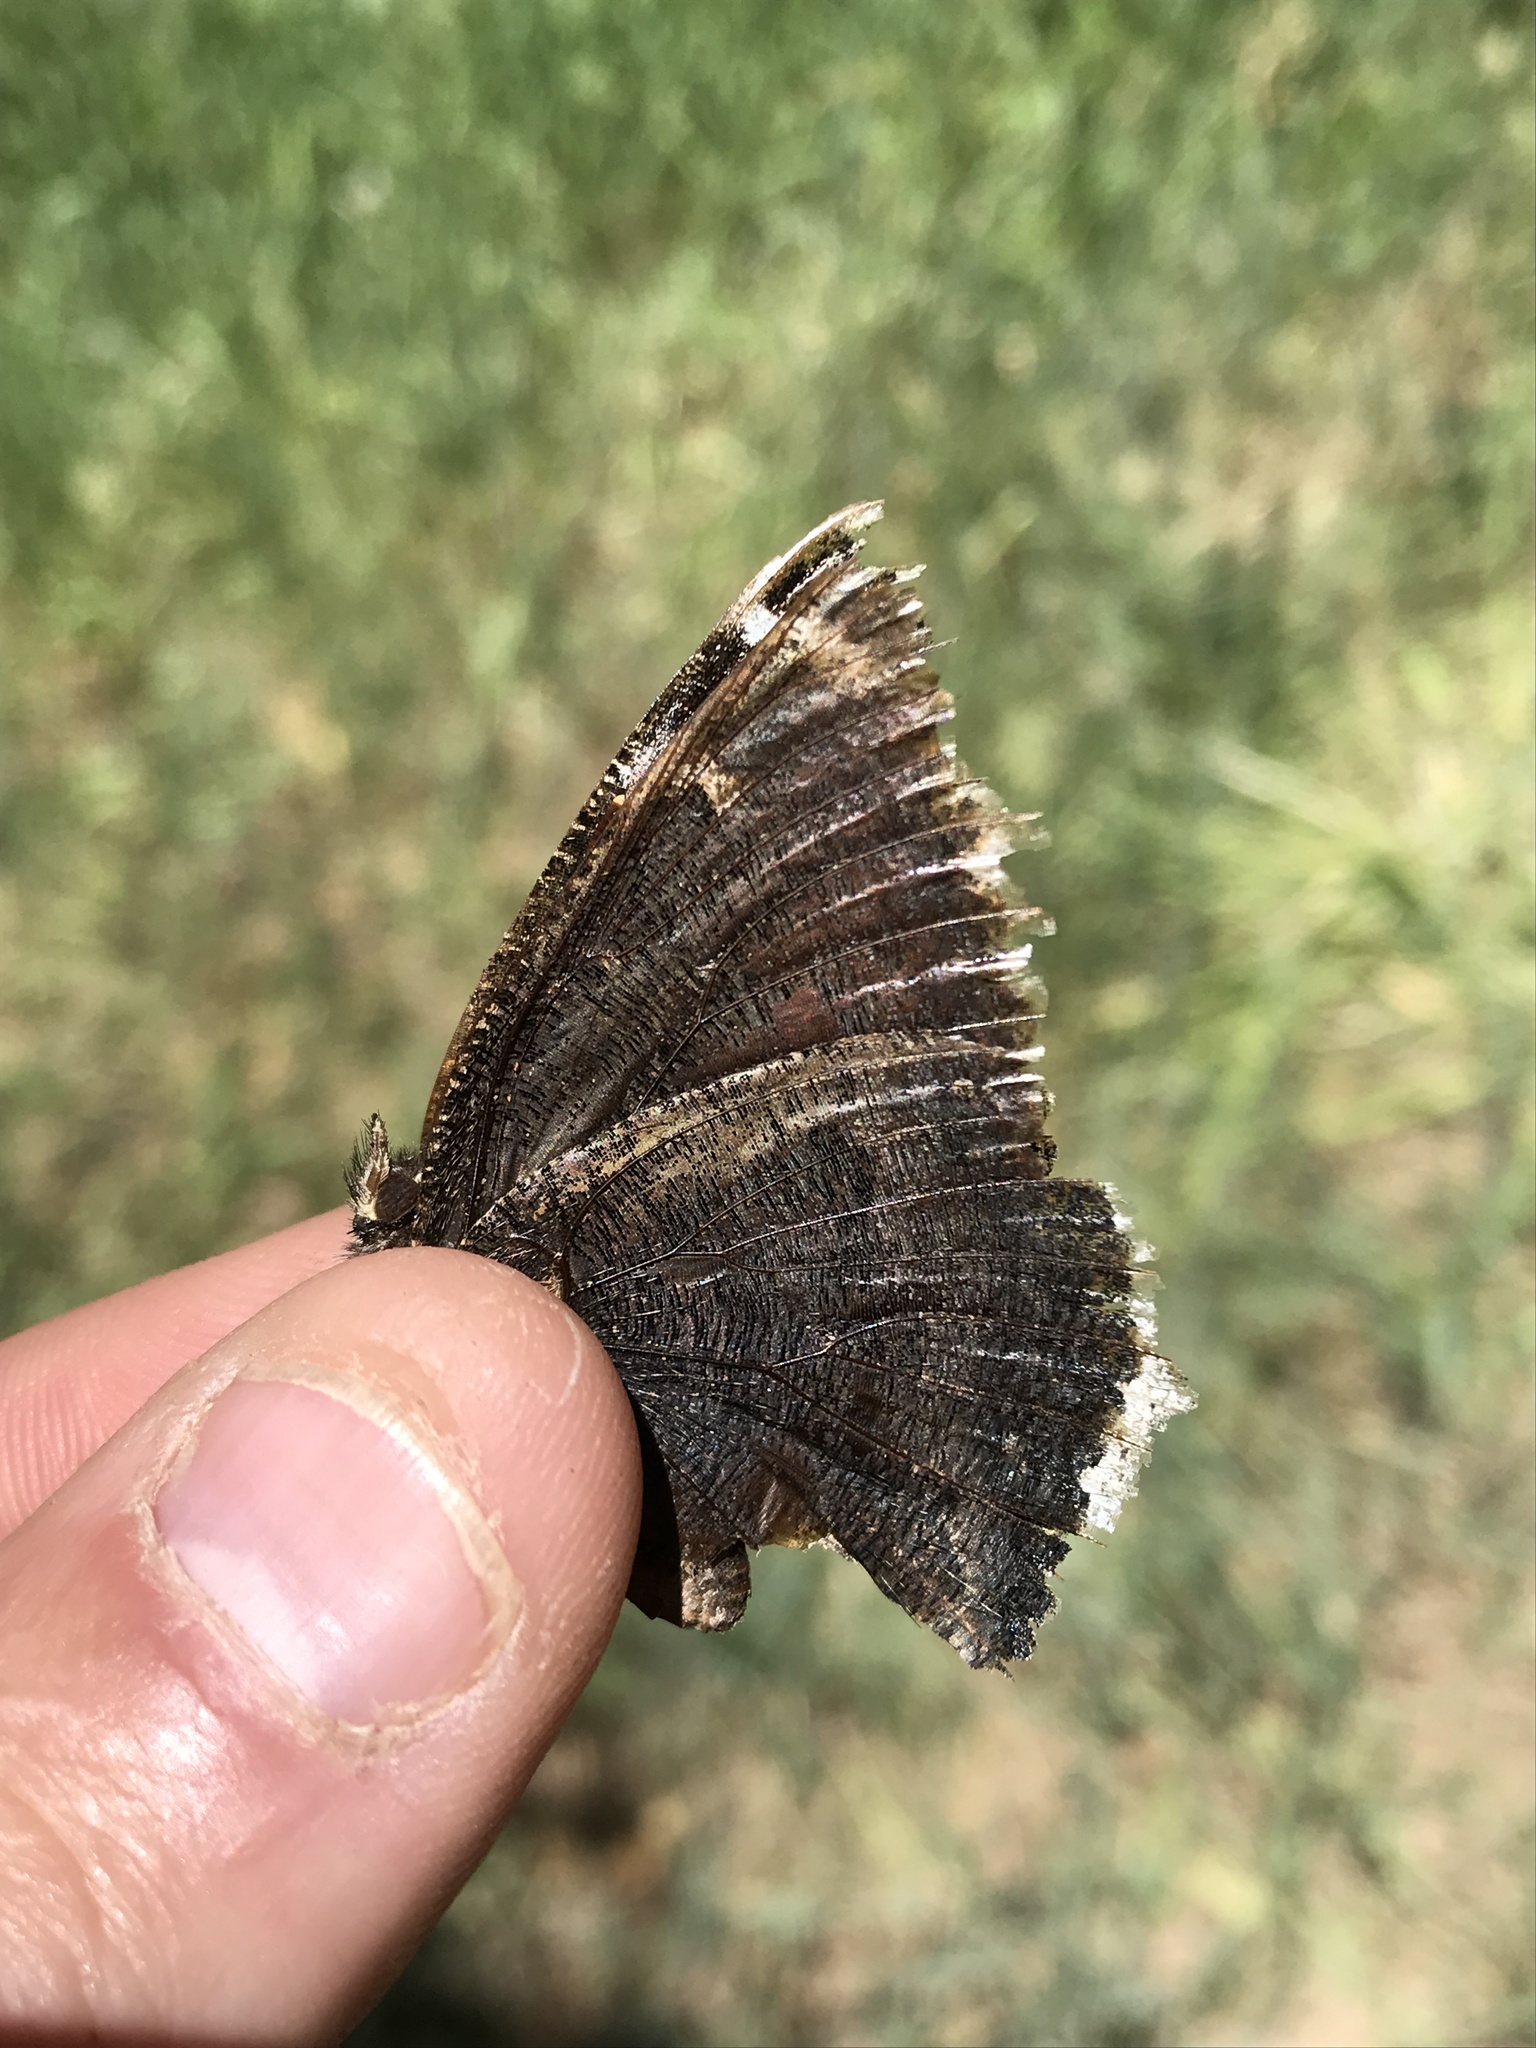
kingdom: Animalia
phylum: Arthropoda
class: Insecta
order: Lepidoptera
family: Nymphalidae
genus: Nymphalis
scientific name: Nymphalis antiopa
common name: Camberwell beauty
